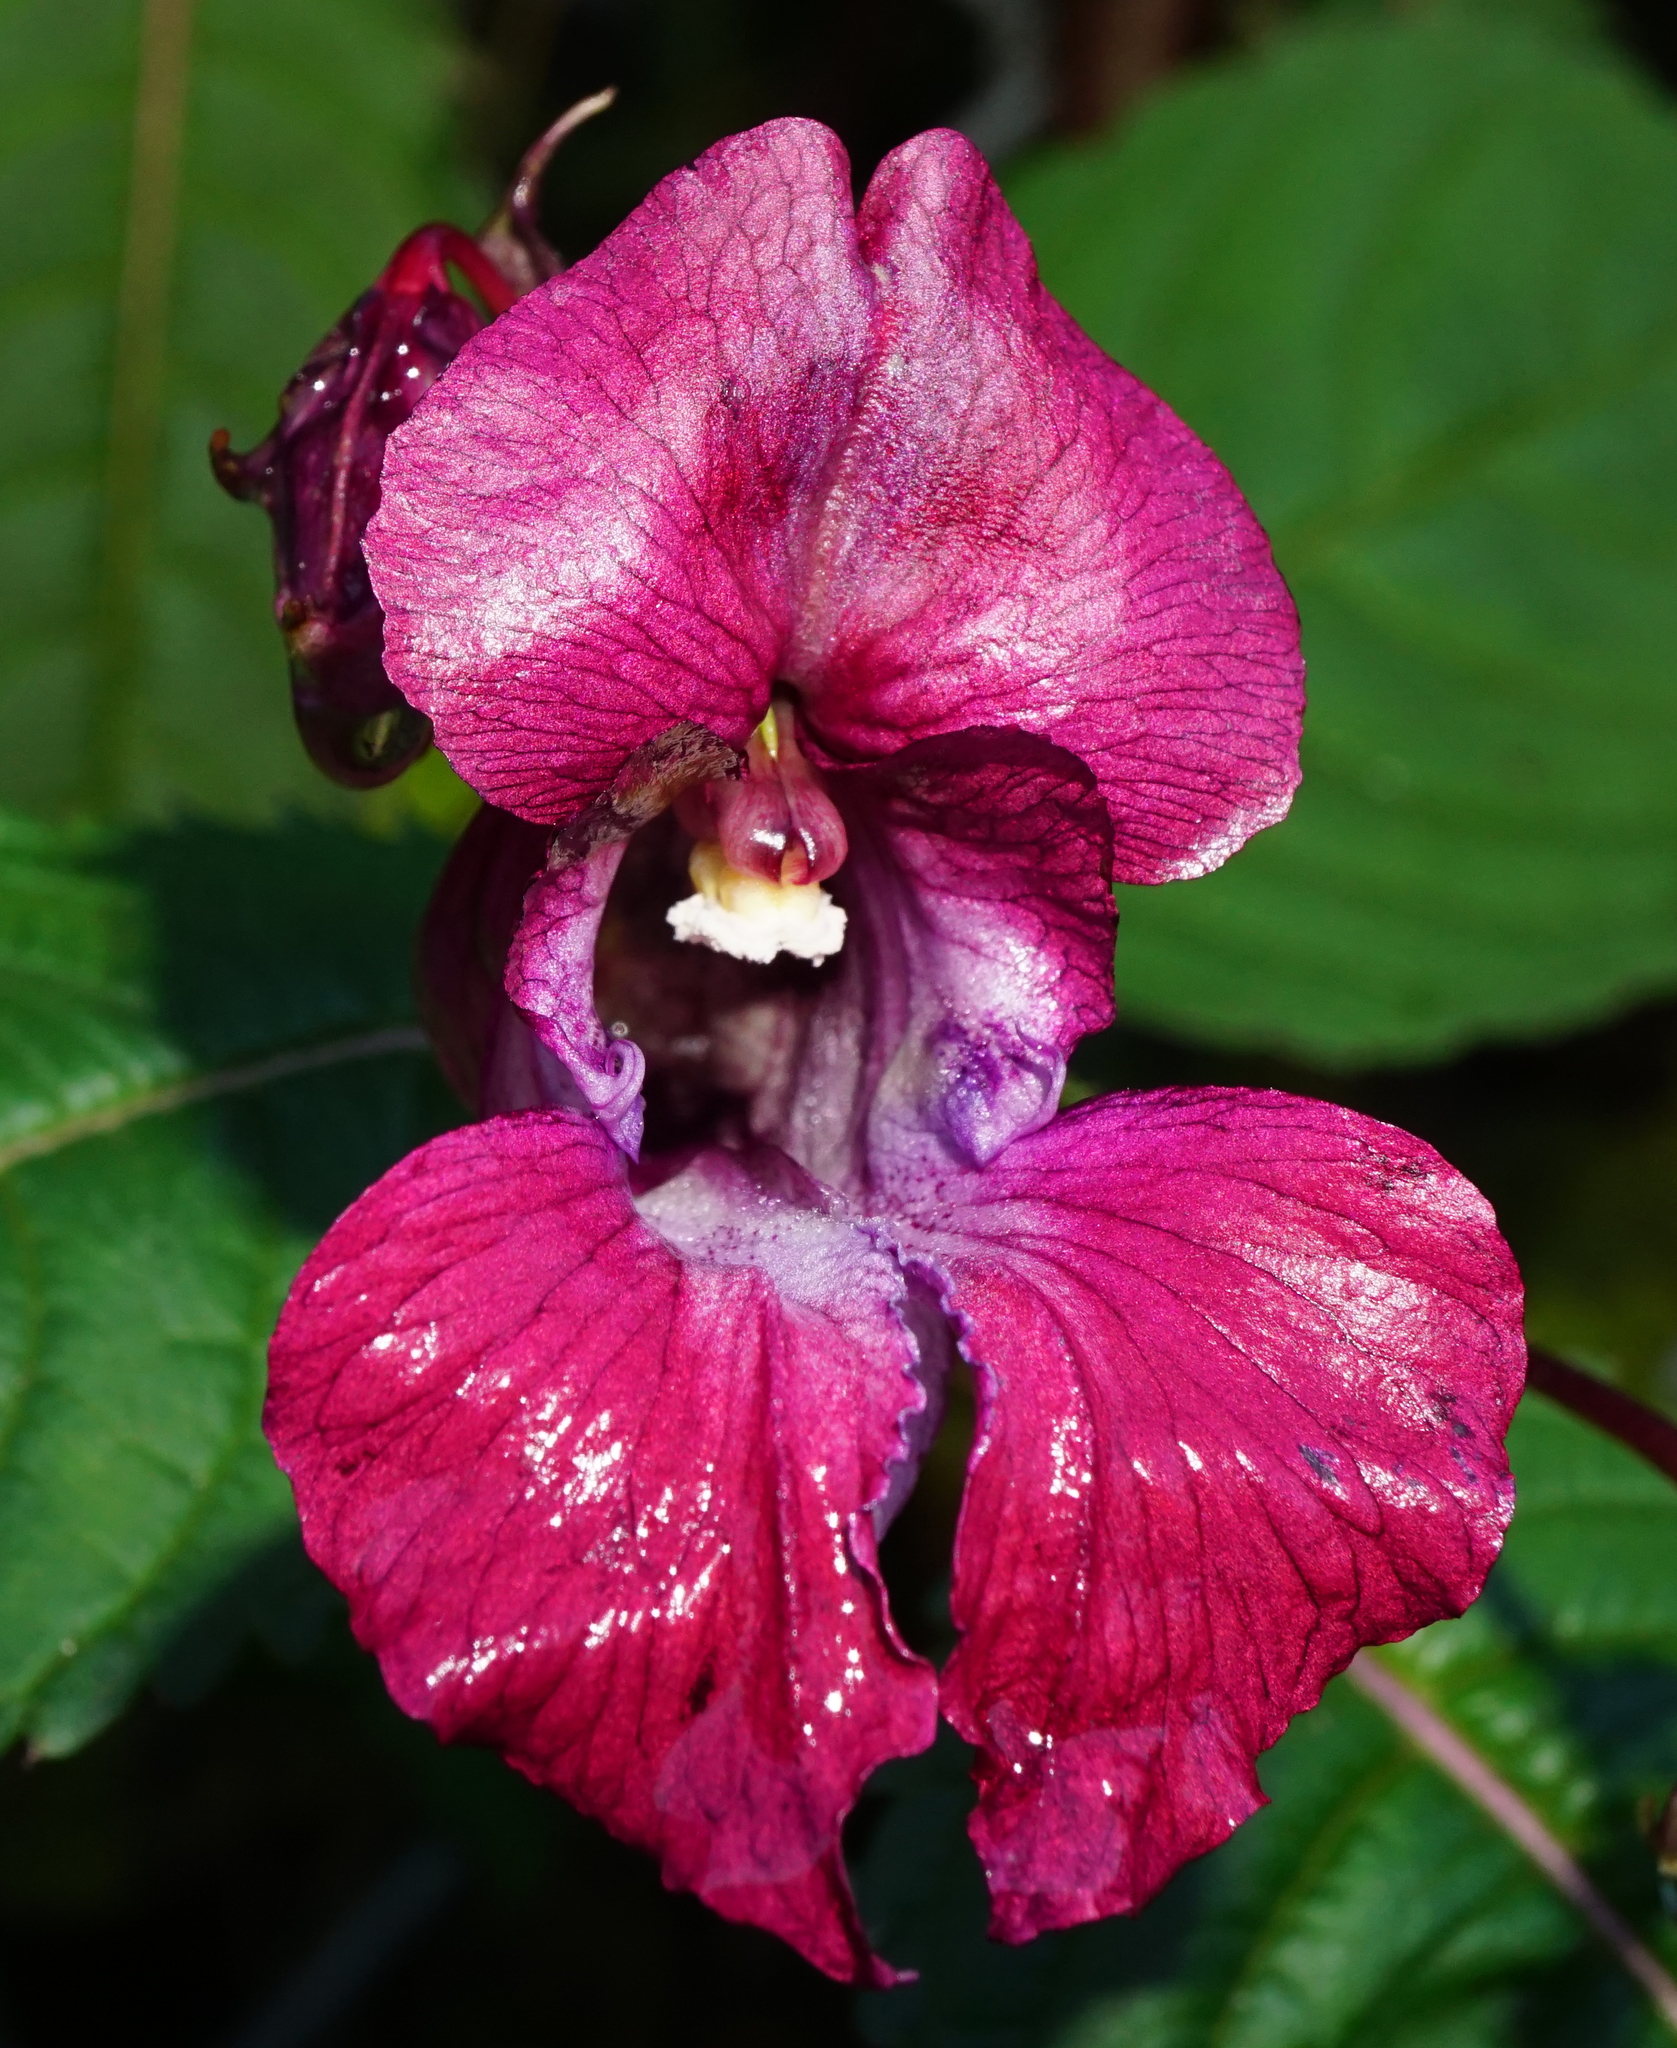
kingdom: Plantae
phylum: Tracheophyta
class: Magnoliopsida
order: Ericales
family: Balsaminaceae
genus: Impatiens
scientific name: Impatiens glandulifera
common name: Himalayan balsam
